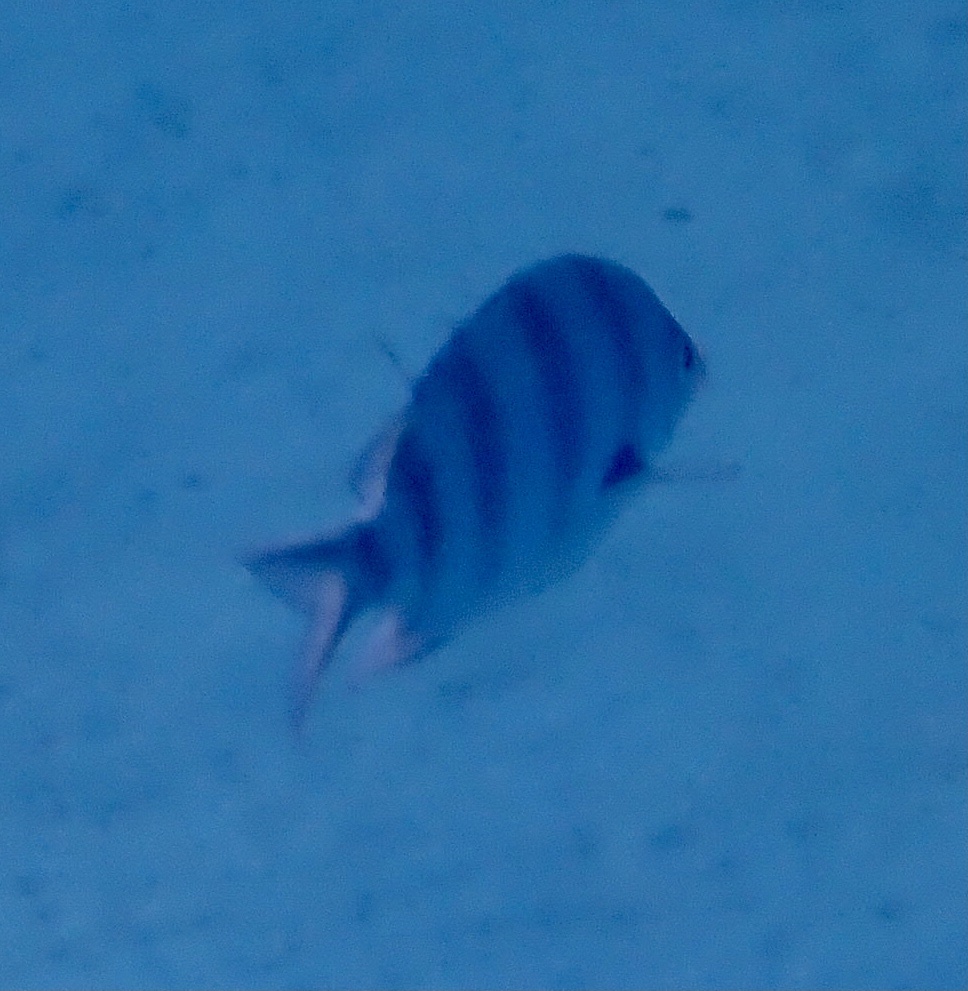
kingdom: Animalia
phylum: Chordata
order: Perciformes
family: Pomacentridae
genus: Abudefduf
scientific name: Abudefduf sexfasciatus
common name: Scissortail sergeant
